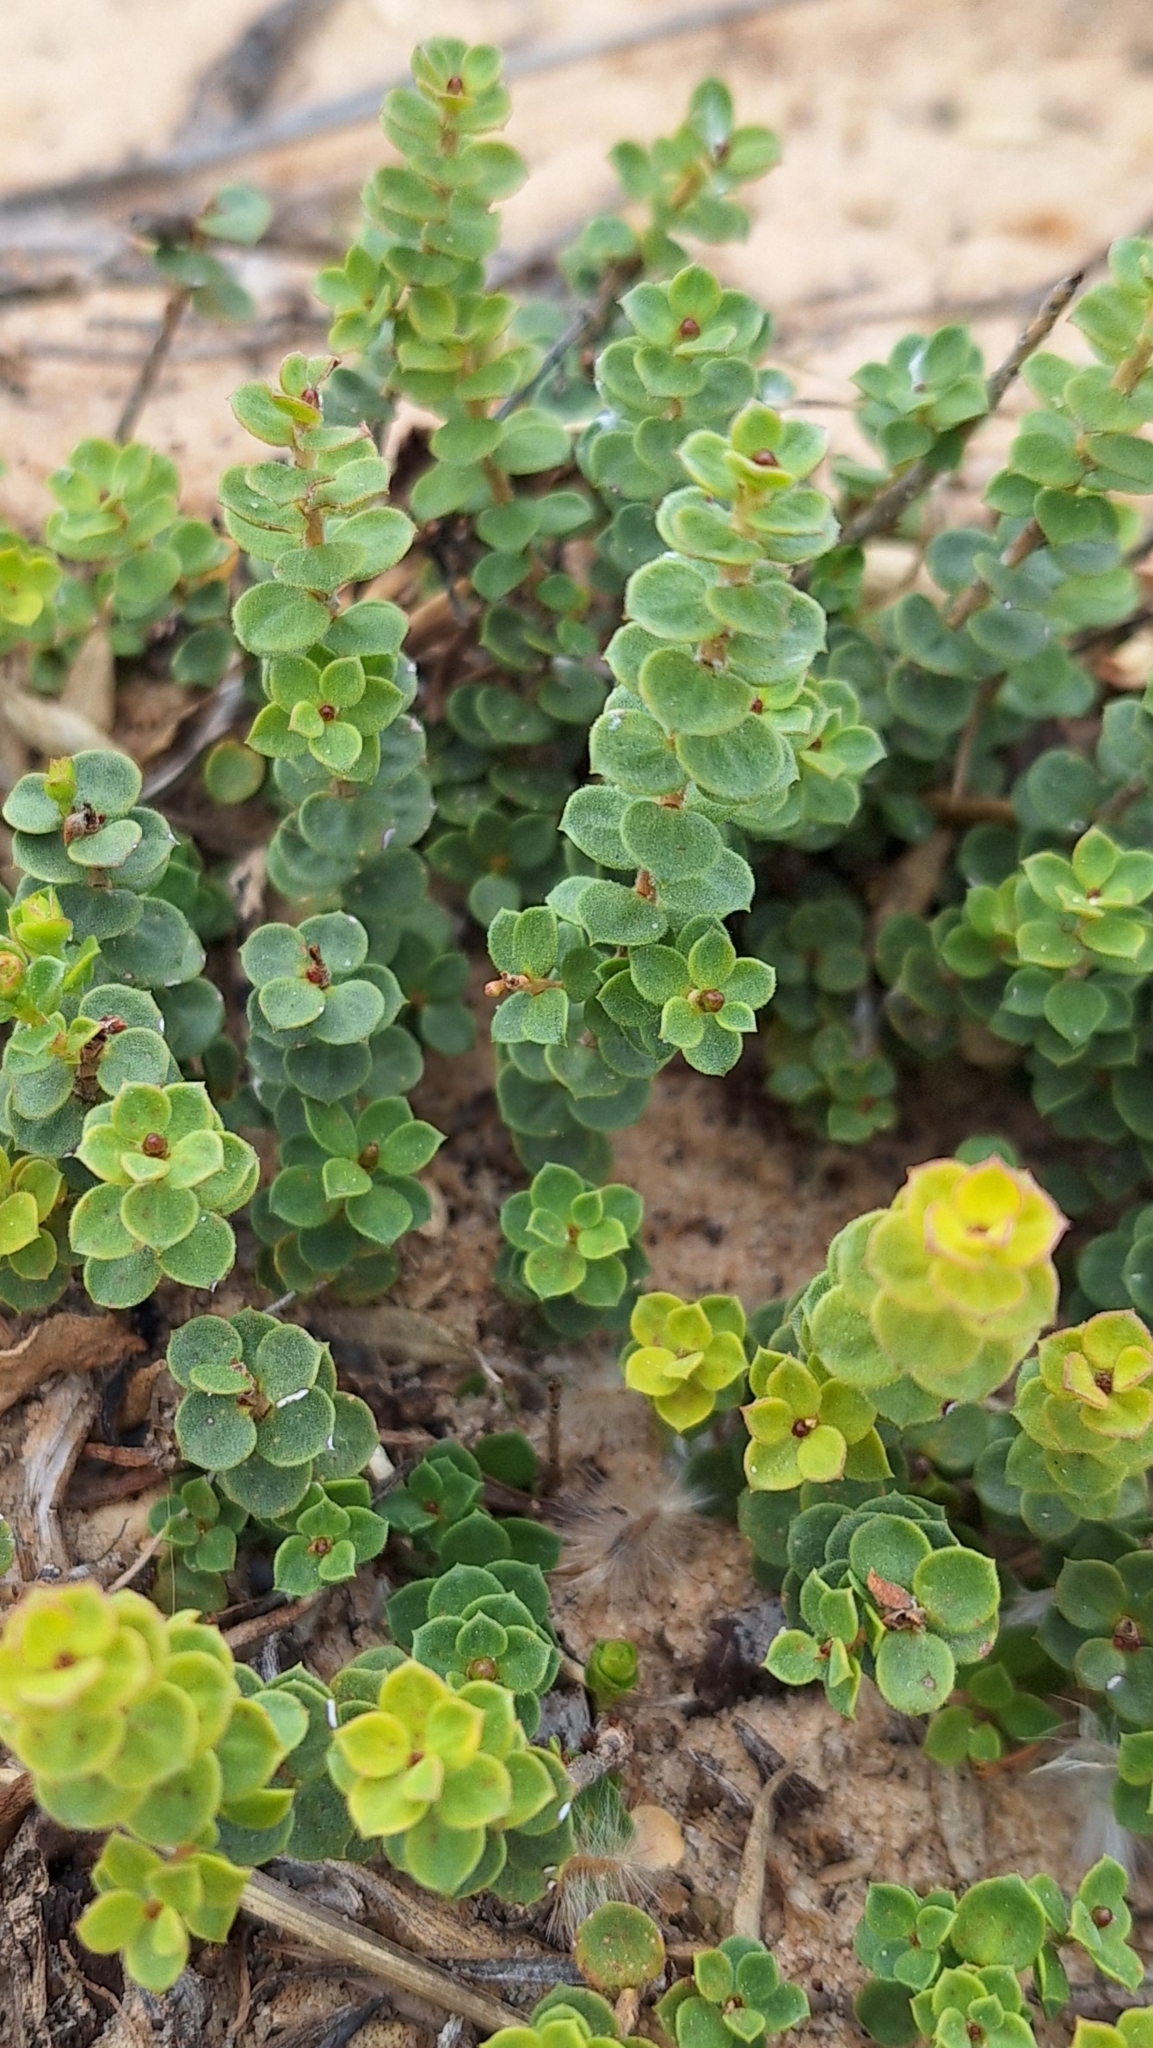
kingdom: Plantae
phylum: Tracheophyta
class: Magnoliopsida
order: Myrtales
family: Myrtaceae
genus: Kunzea
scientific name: Kunzea pomifera
